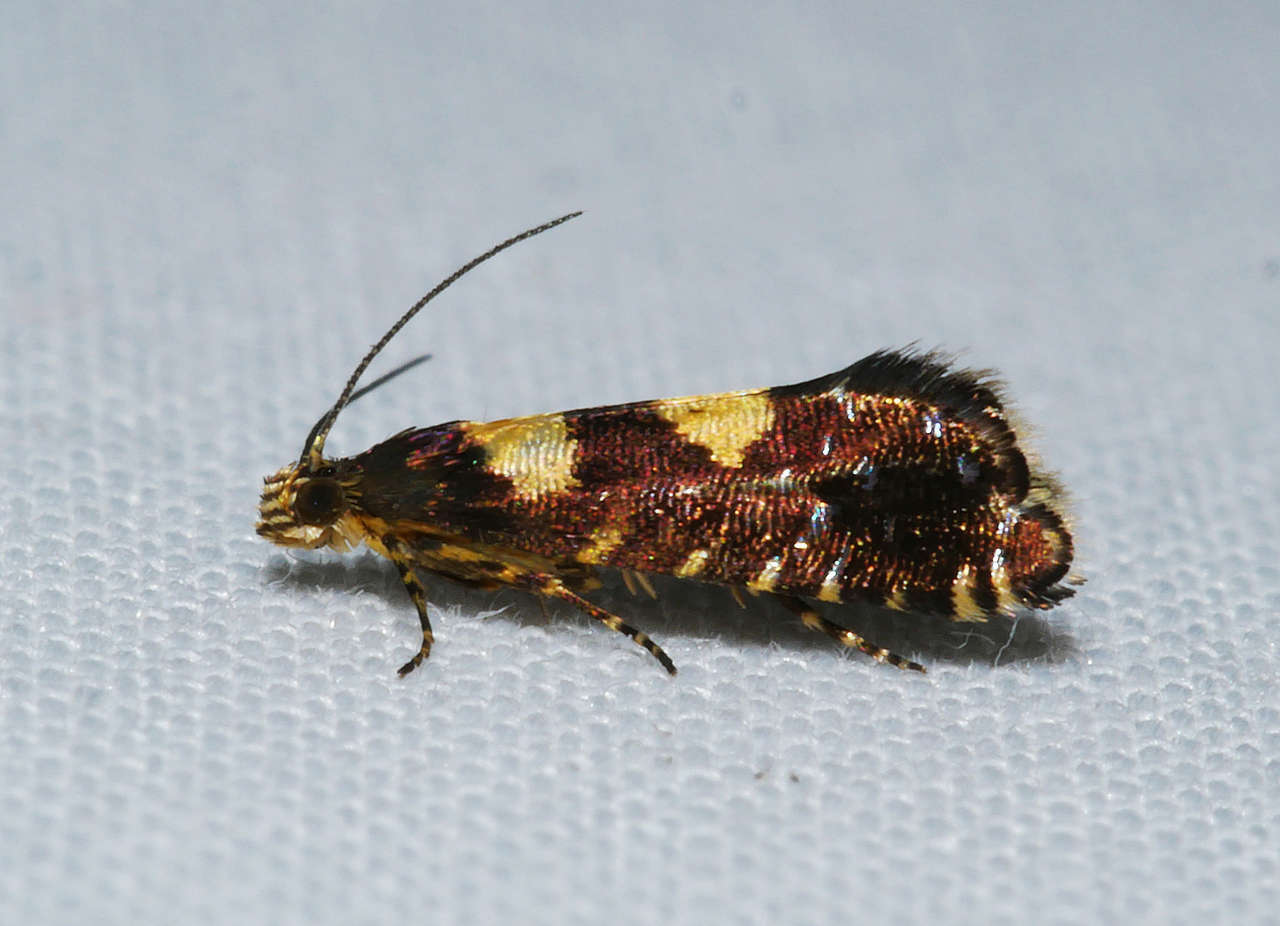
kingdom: Animalia
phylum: Arthropoda
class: Insecta
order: Lepidoptera
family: Glyphipterigidae
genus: Glyphipterix
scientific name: Glyphipterix chrysoplanetis
